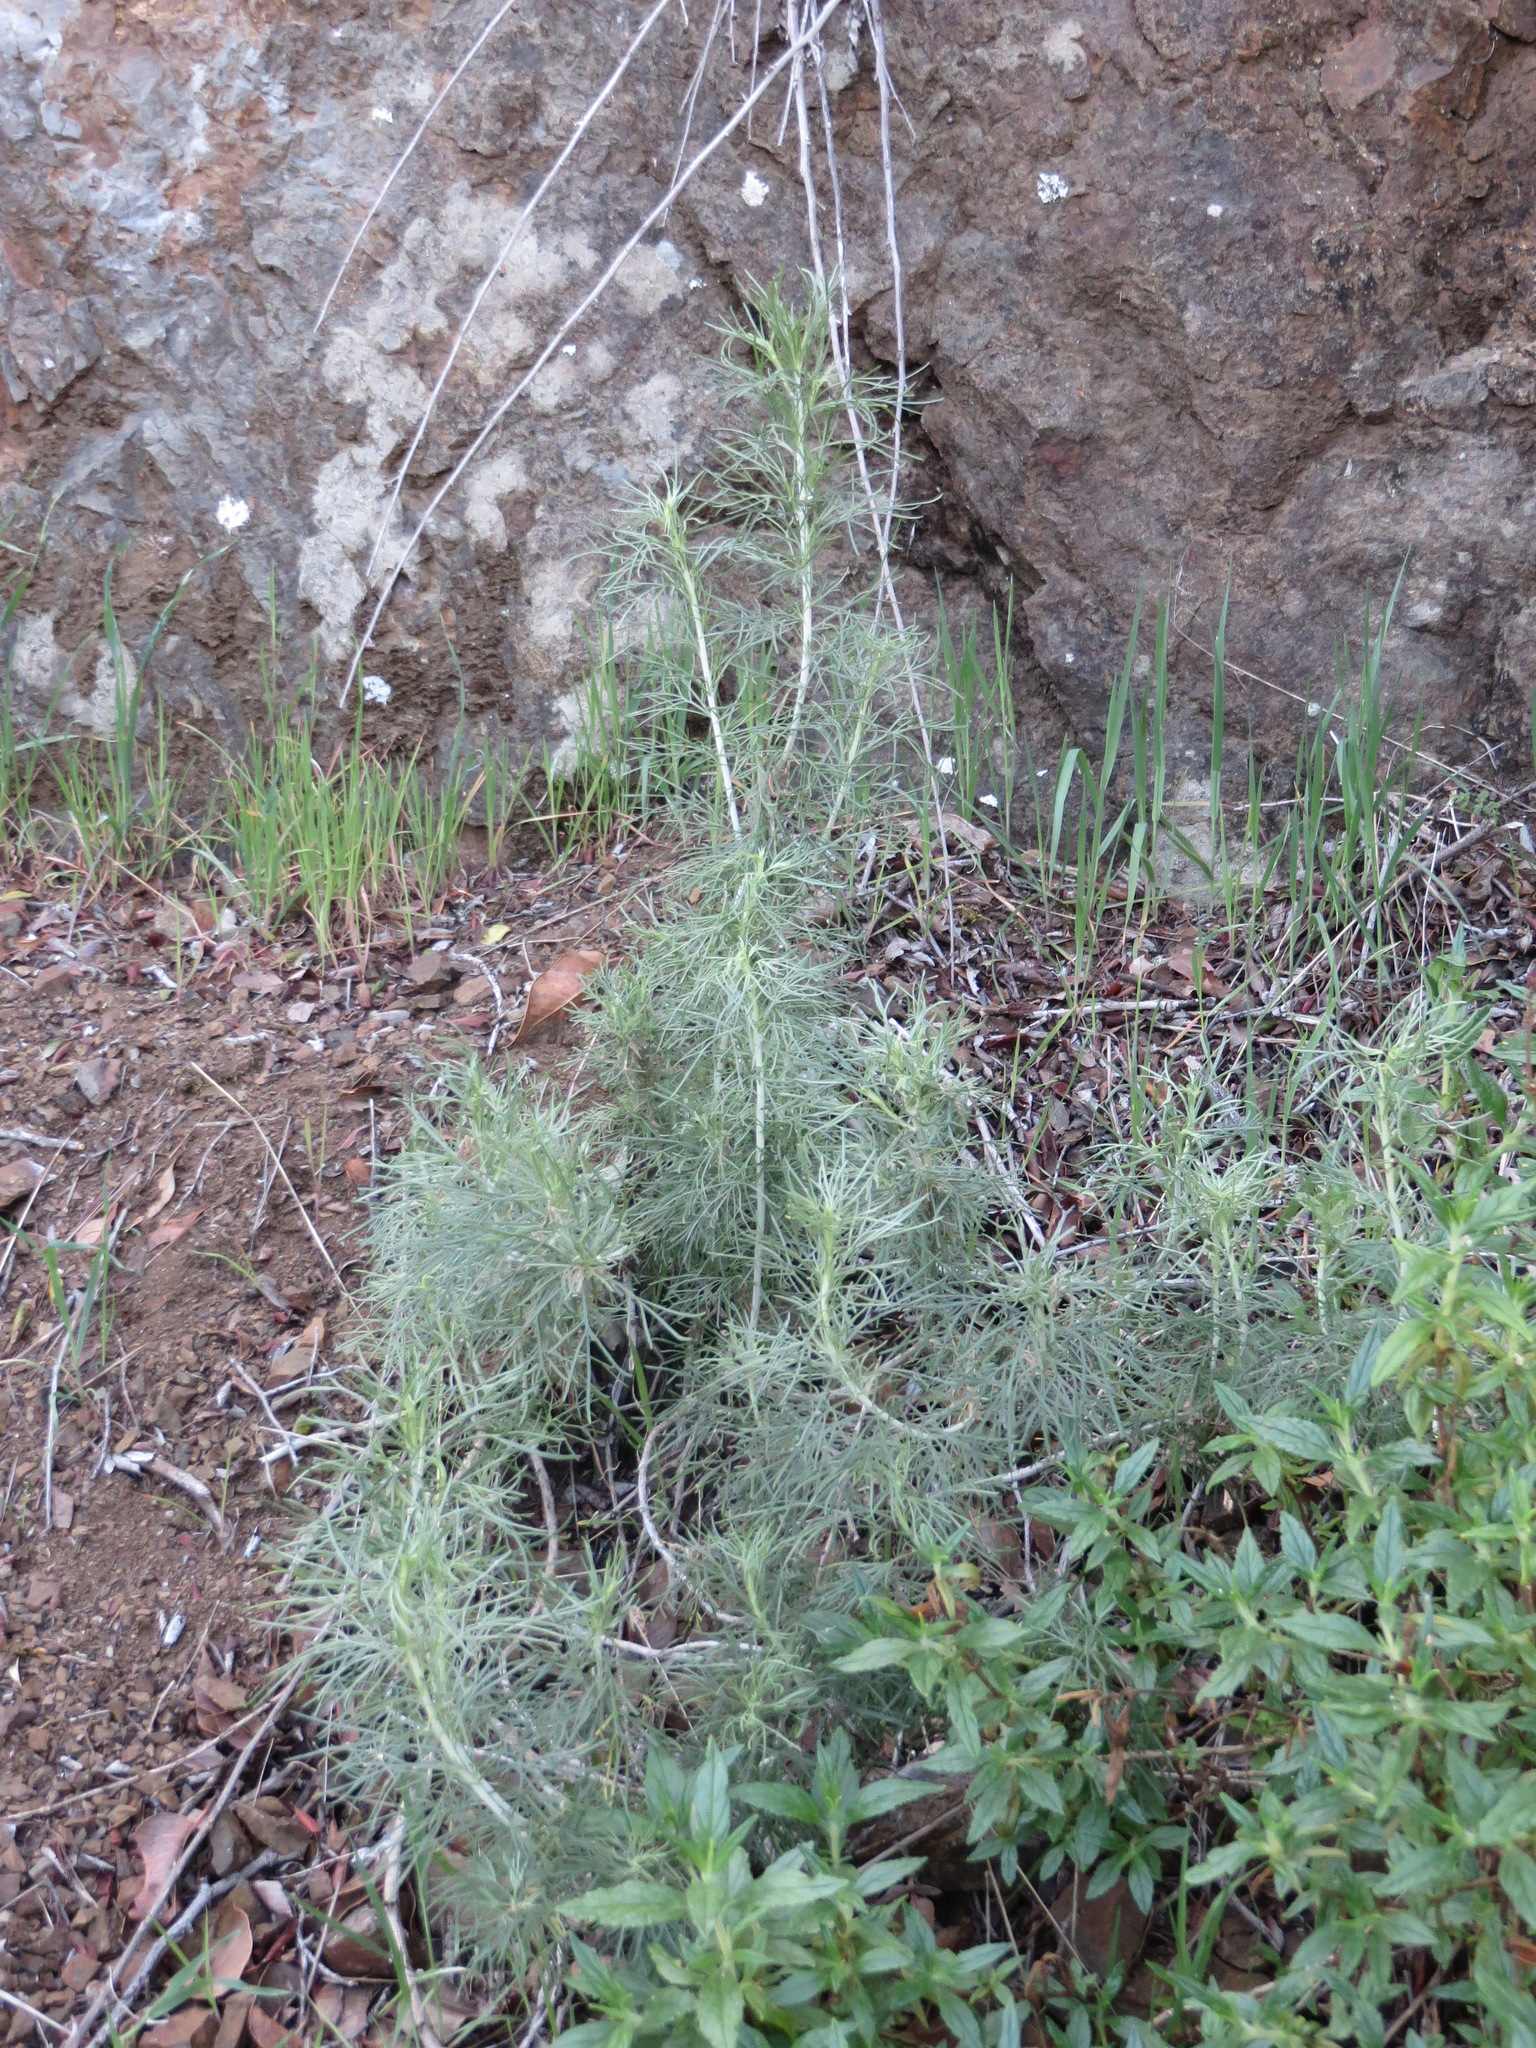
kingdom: Plantae
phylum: Tracheophyta
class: Magnoliopsida
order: Asterales
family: Asteraceae
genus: Artemisia
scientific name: Artemisia californica
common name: California sagebrush
